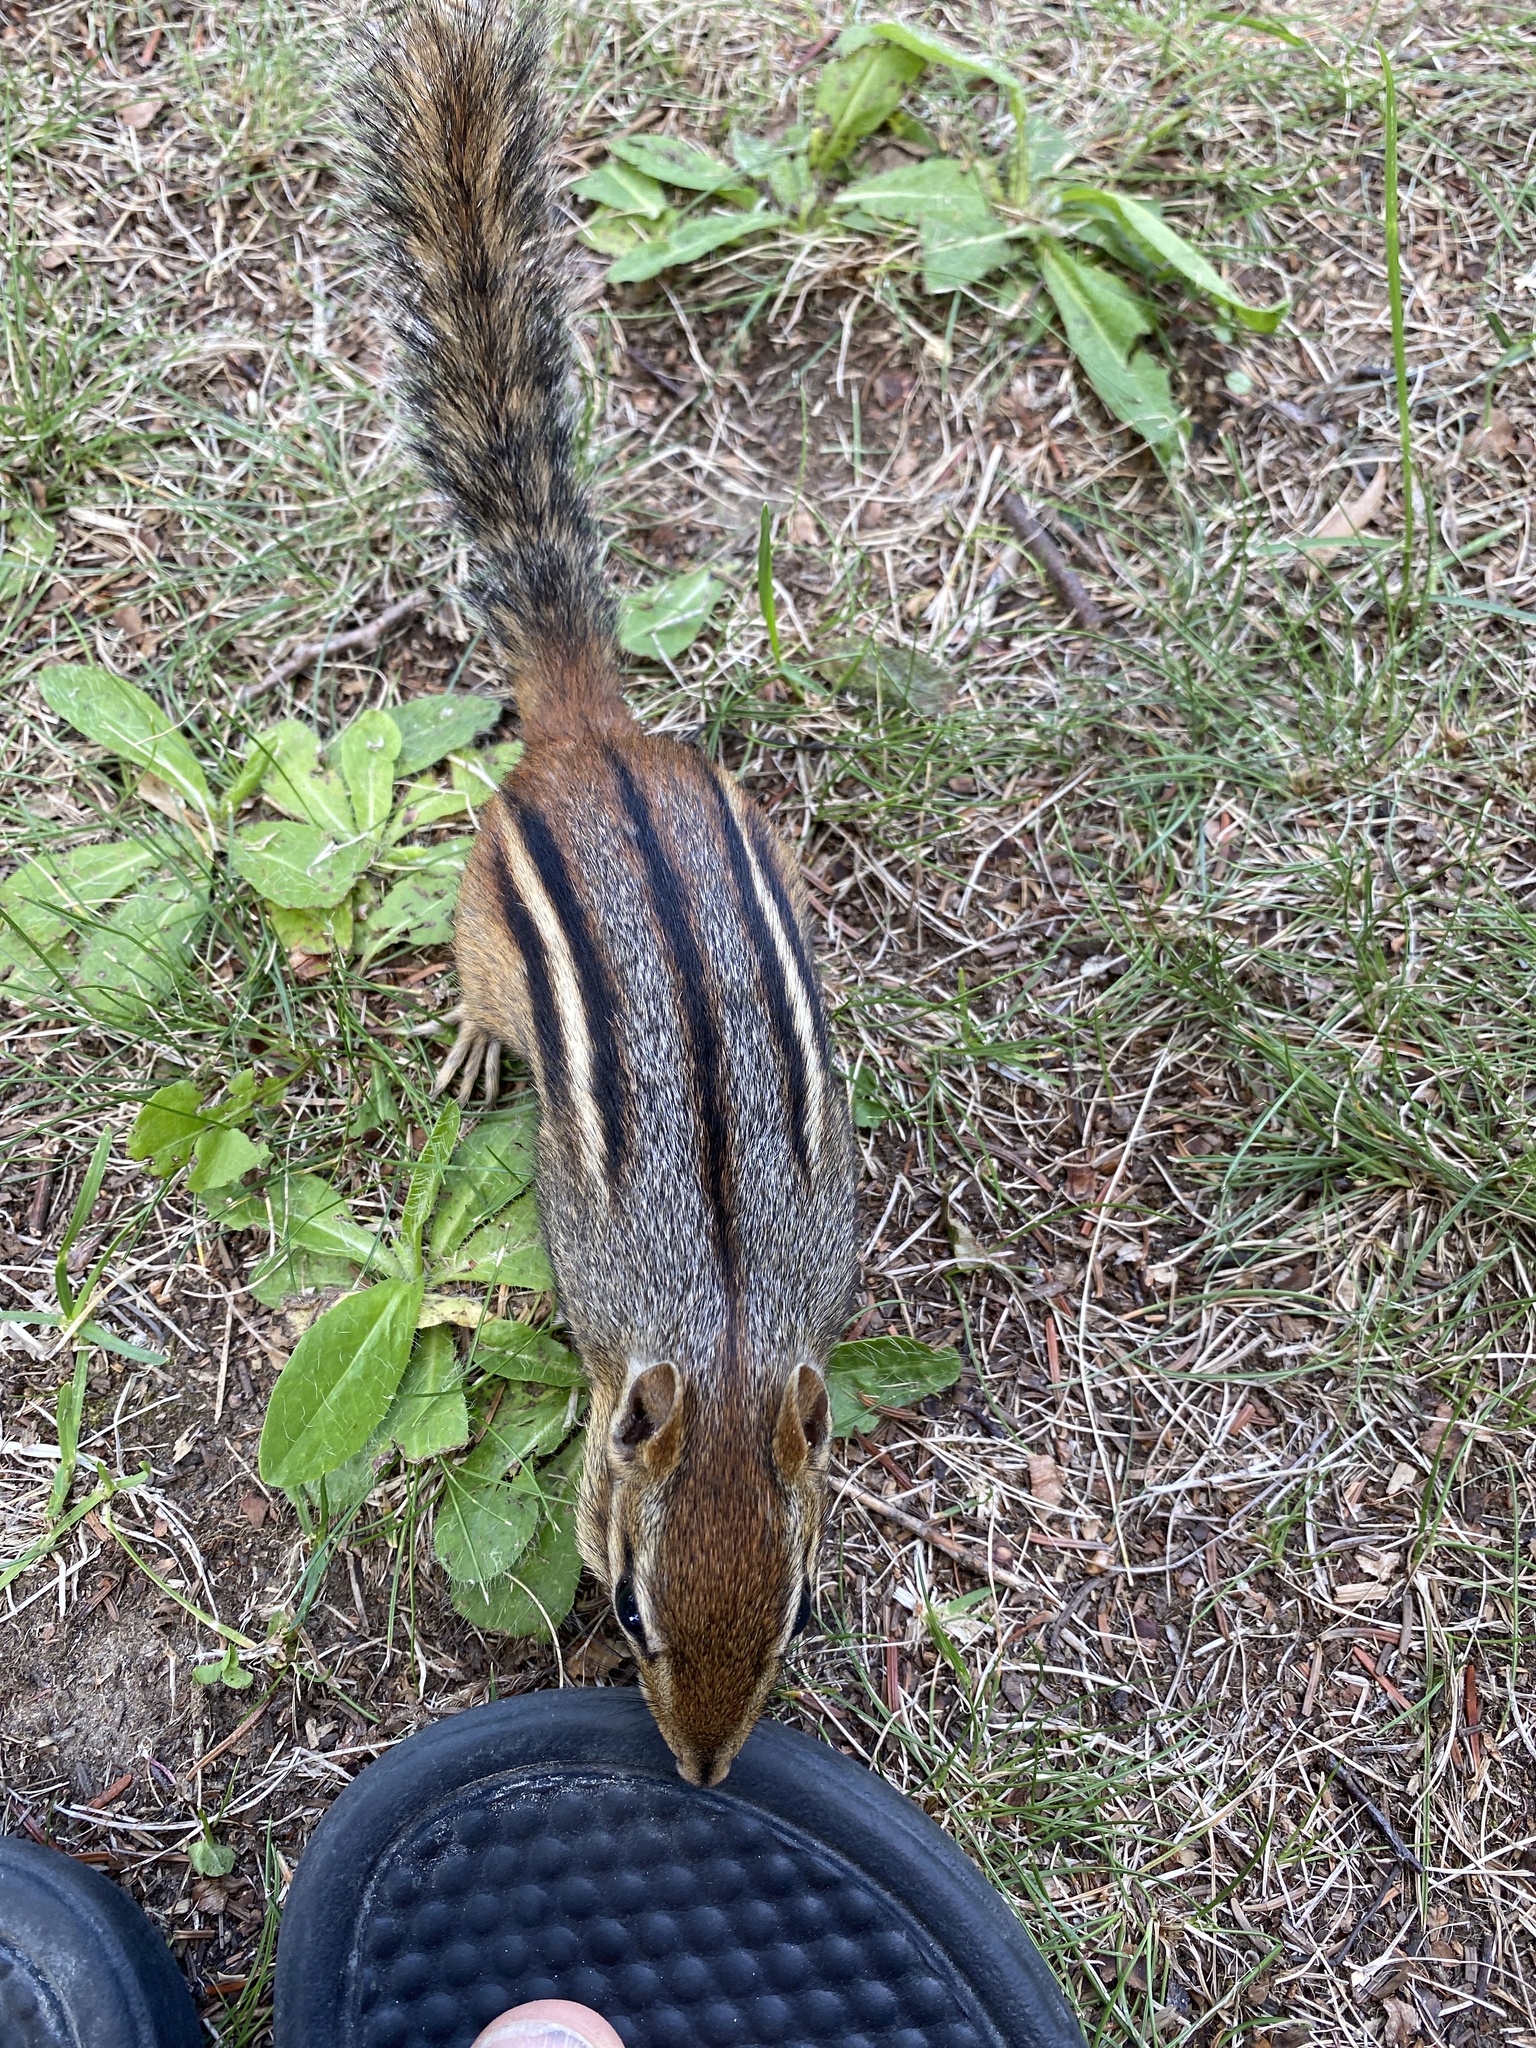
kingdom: Animalia
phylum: Chordata
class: Mammalia
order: Rodentia
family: Sciuridae
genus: Tamias
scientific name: Tamias striatus
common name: Eastern chipmunk
